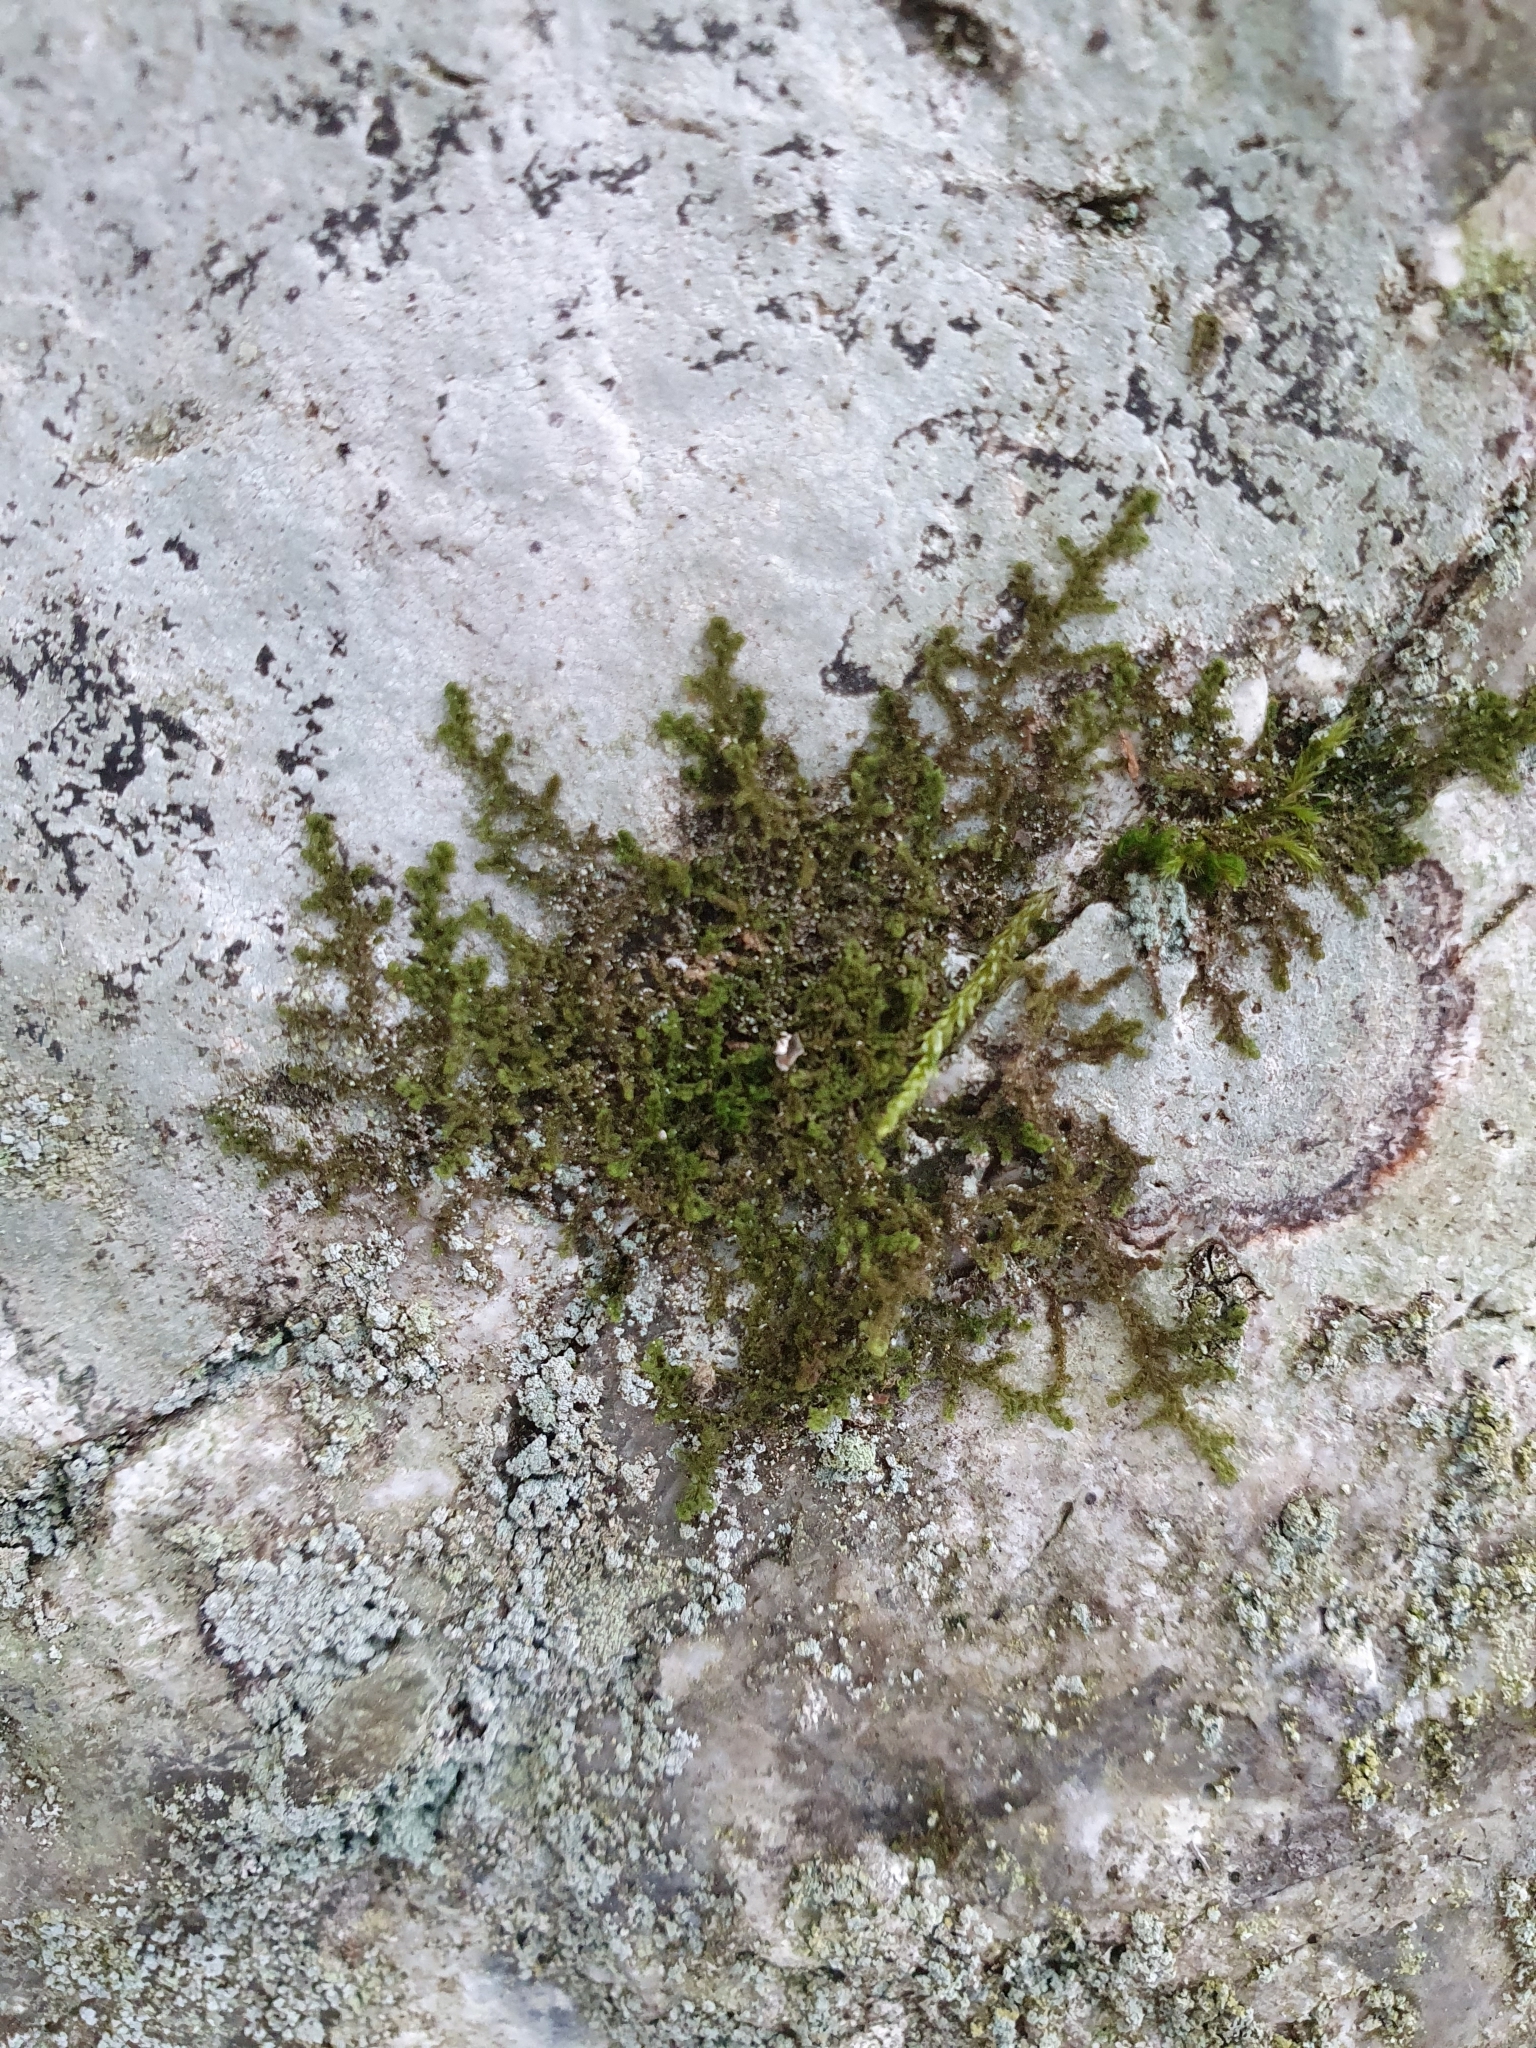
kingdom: Plantae
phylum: Marchantiophyta
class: Jungermanniopsida
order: Ptilidiales
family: Ptilidiaceae
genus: Ptilidium
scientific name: Ptilidium pulcherrimum
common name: Tree fringewort
